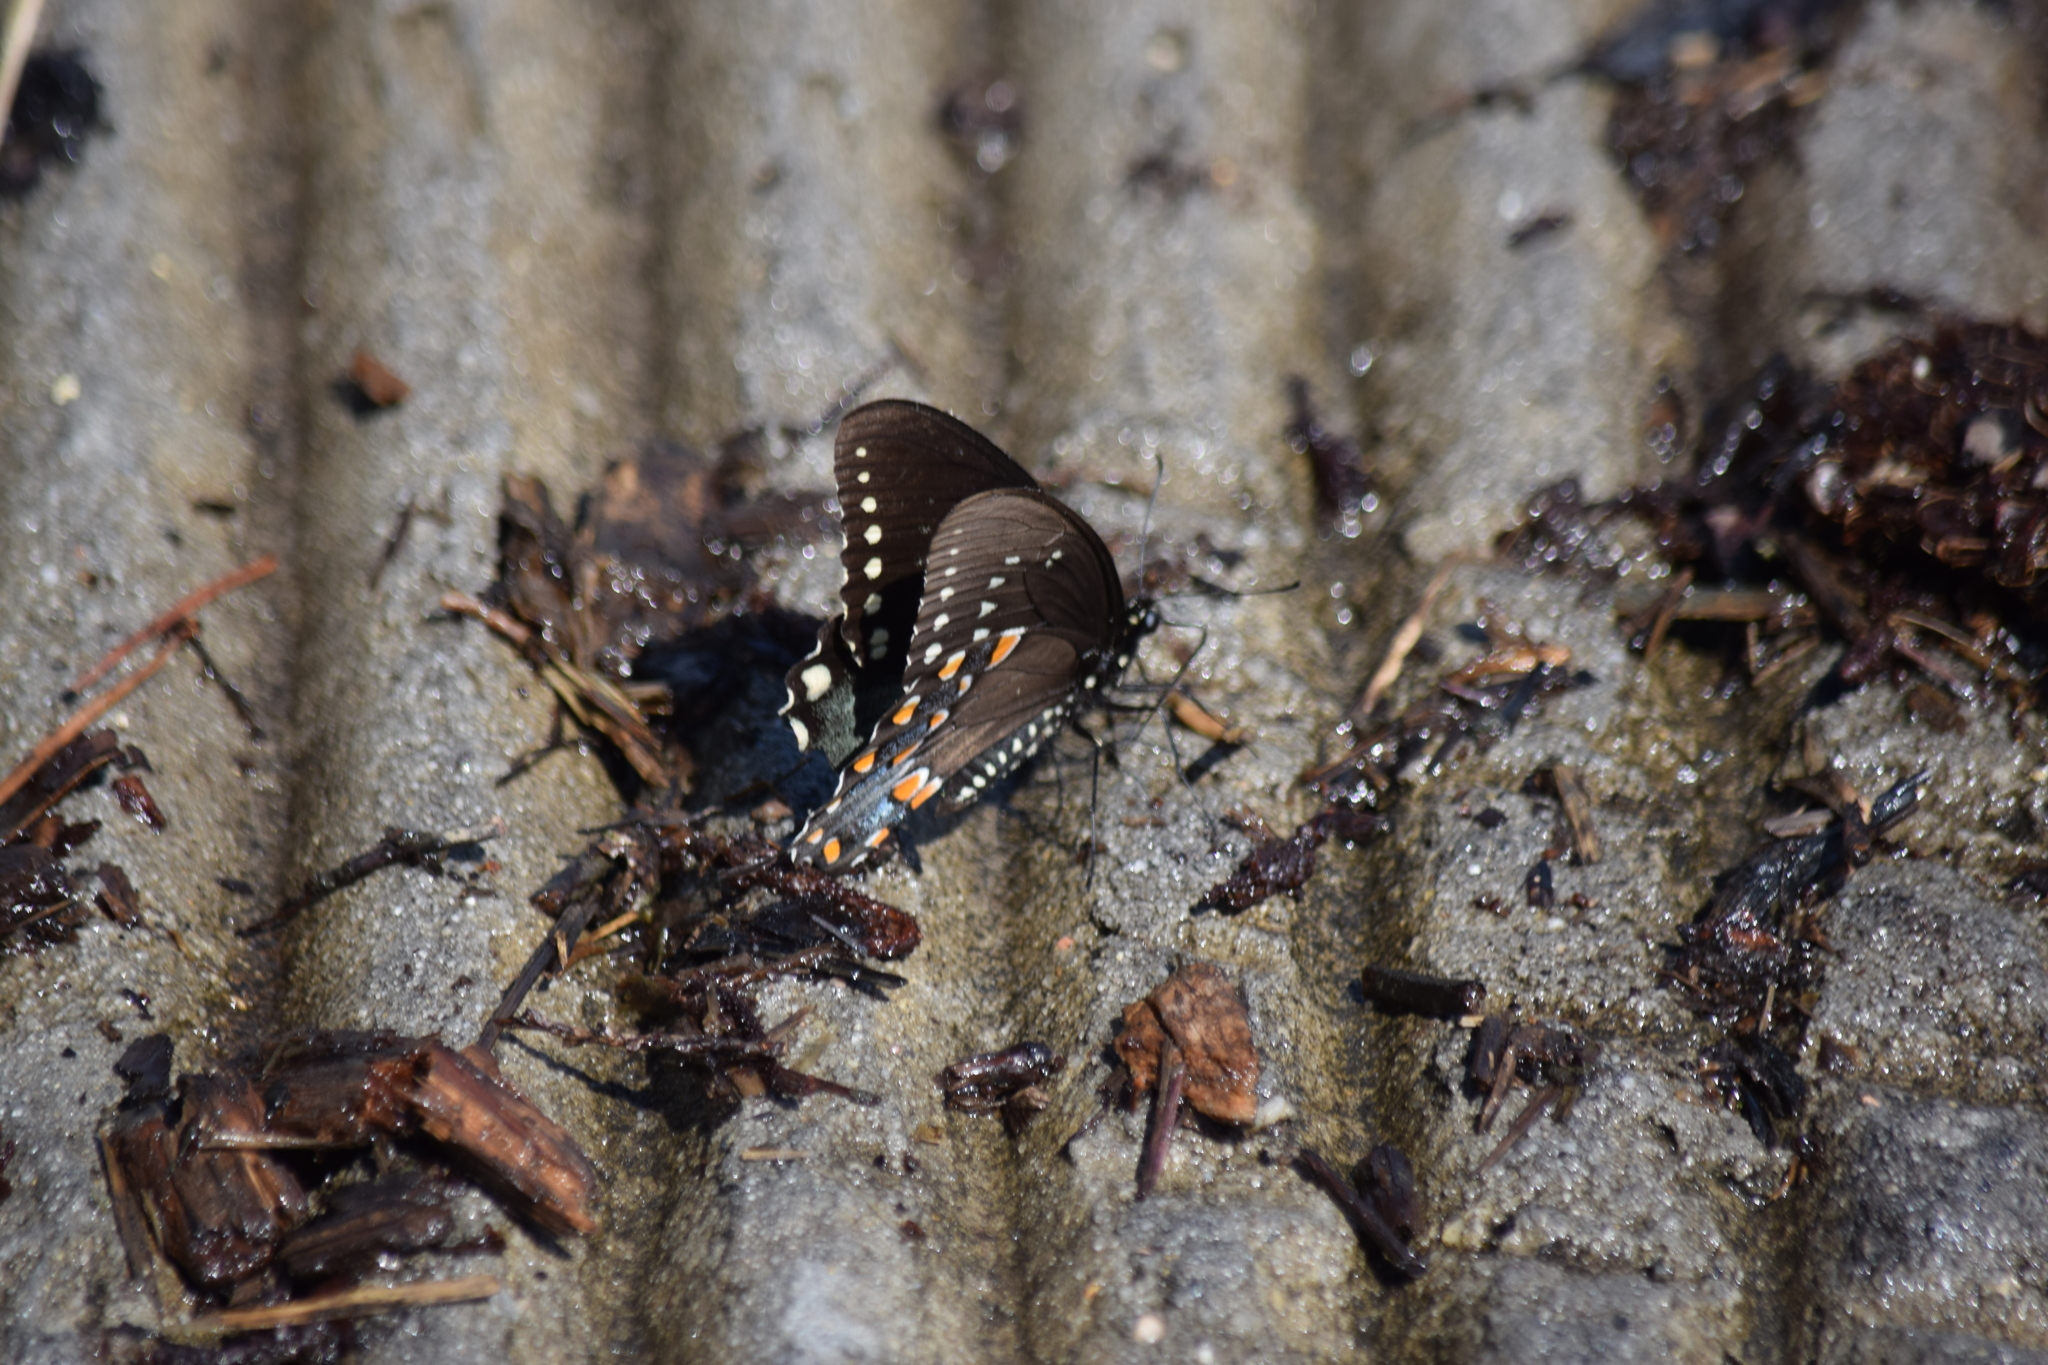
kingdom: Animalia
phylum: Arthropoda
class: Insecta
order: Lepidoptera
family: Papilionidae
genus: Papilio
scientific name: Papilio troilus
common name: Spicebush swallowtail
